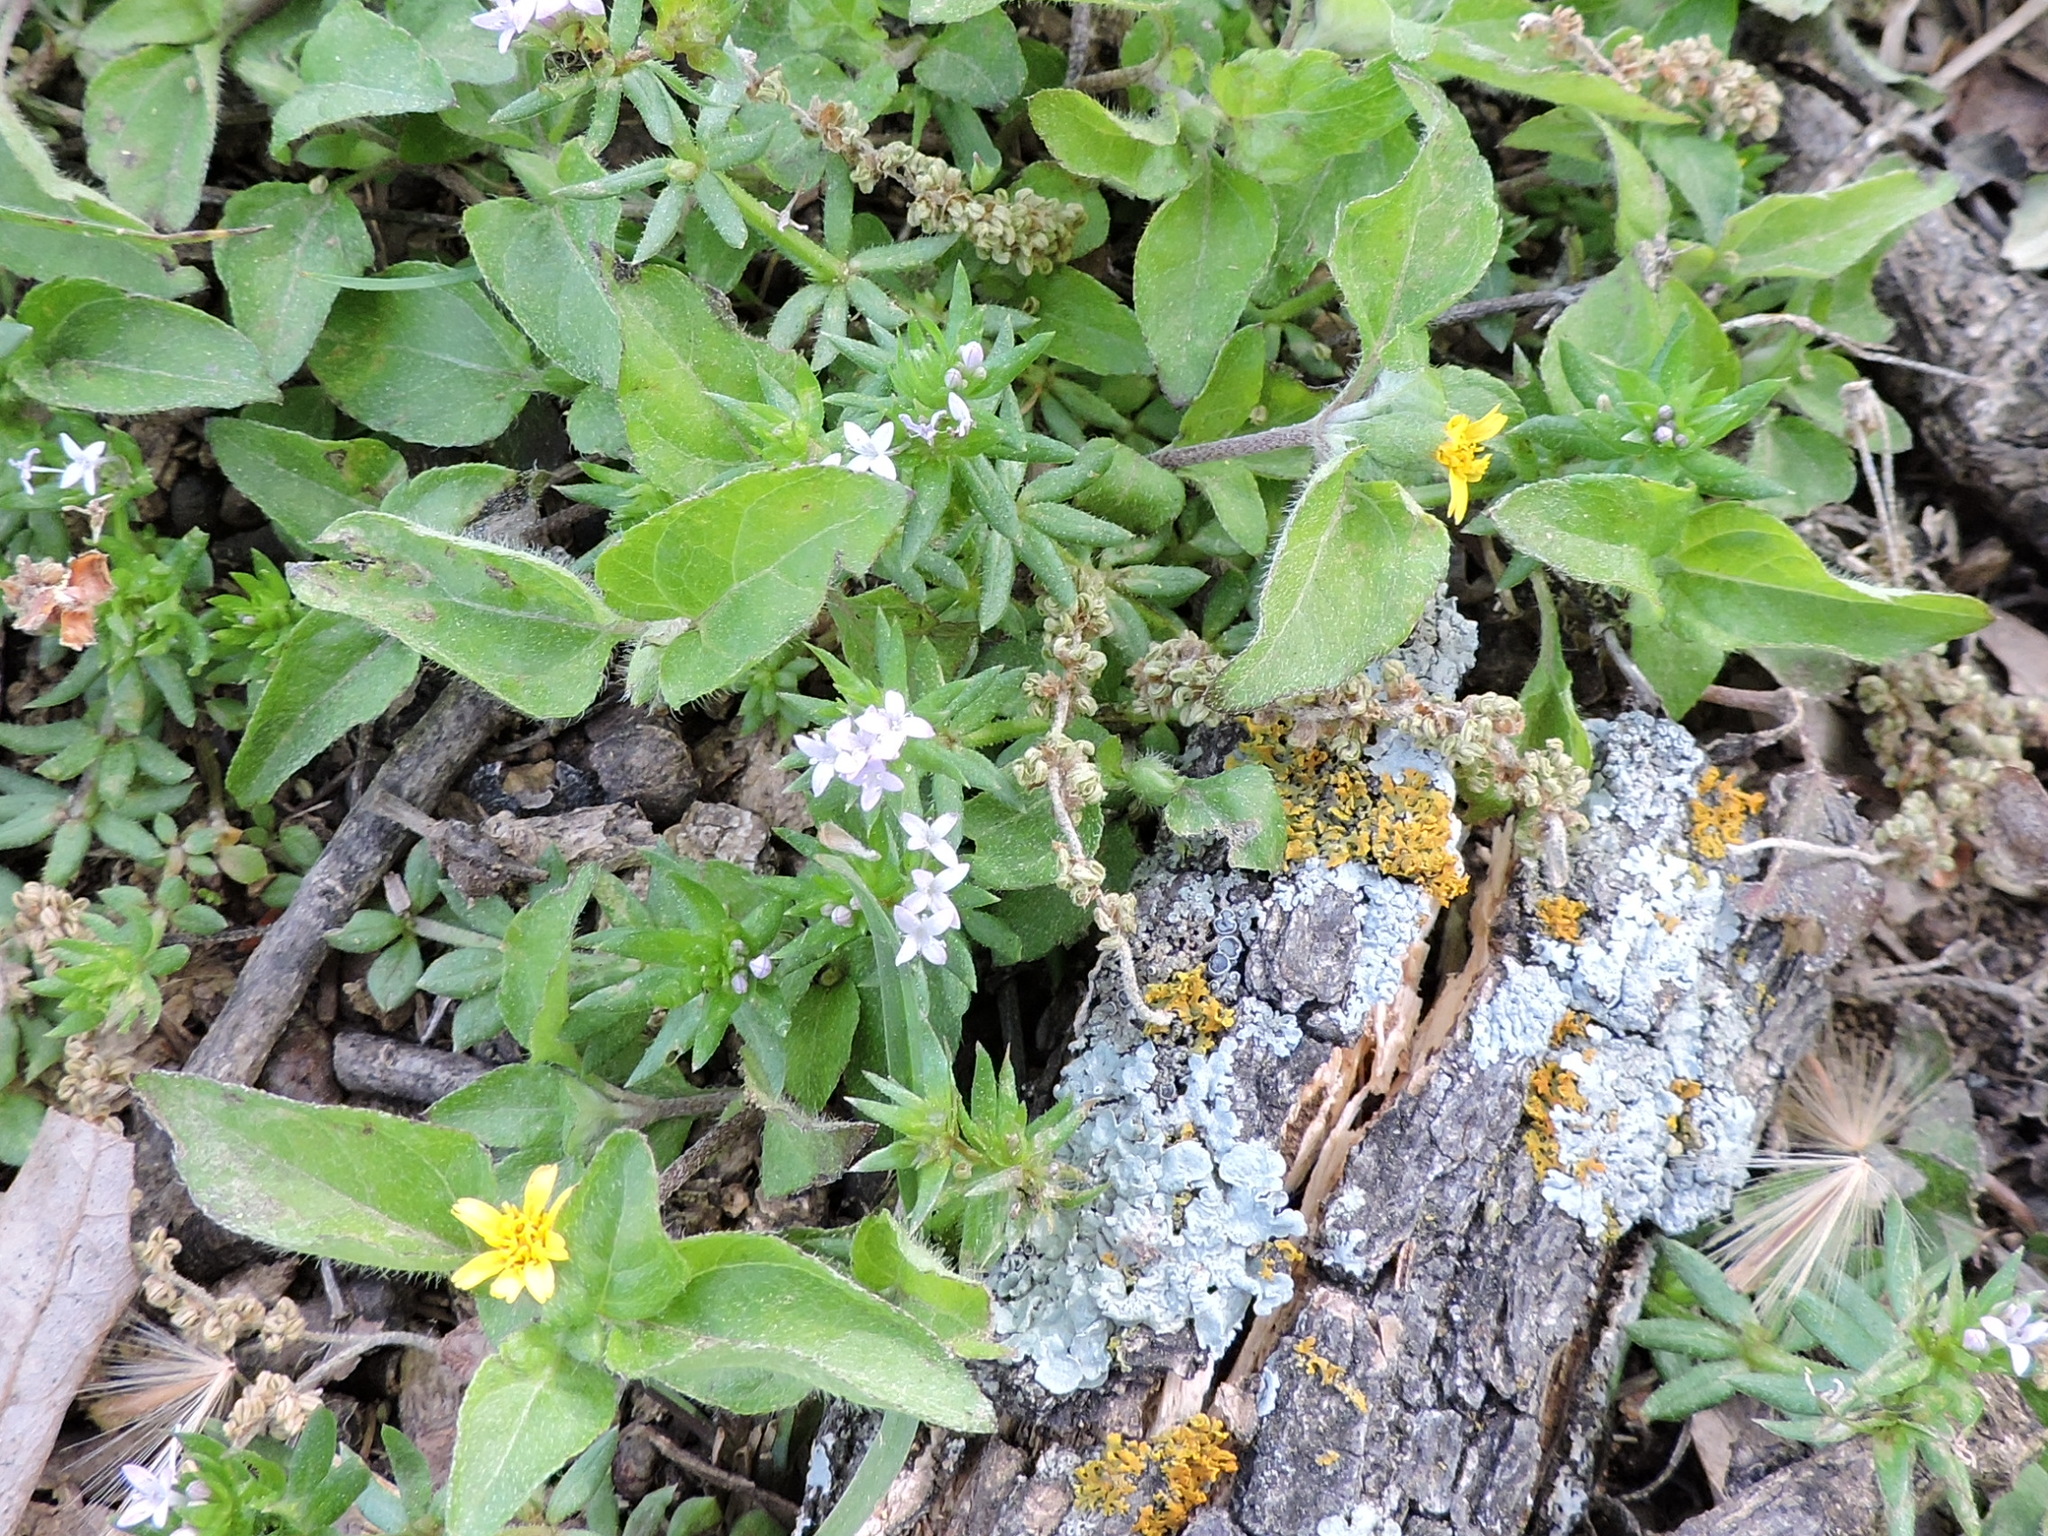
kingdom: Plantae
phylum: Tracheophyta
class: Magnoliopsida
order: Asterales
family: Asteraceae
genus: Calyptocarpus
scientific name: Calyptocarpus vialis
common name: Straggler daisy
